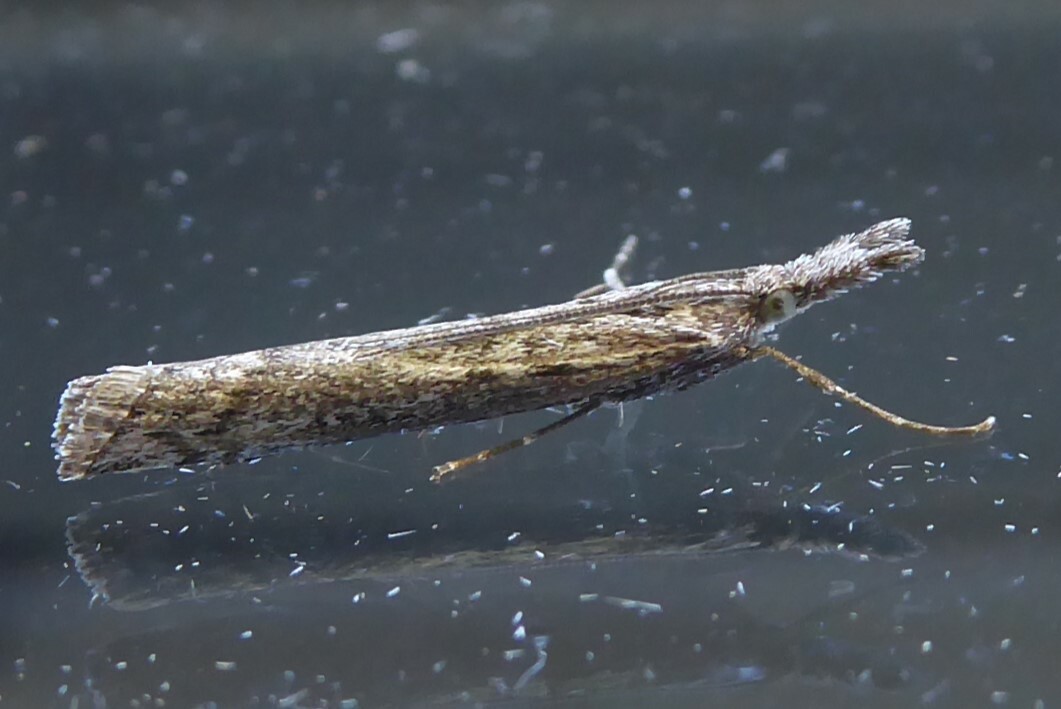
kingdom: Animalia
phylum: Arthropoda
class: Insecta
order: Lepidoptera
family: Crambidae
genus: Orocrambus
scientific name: Orocrambus cyclopicus
